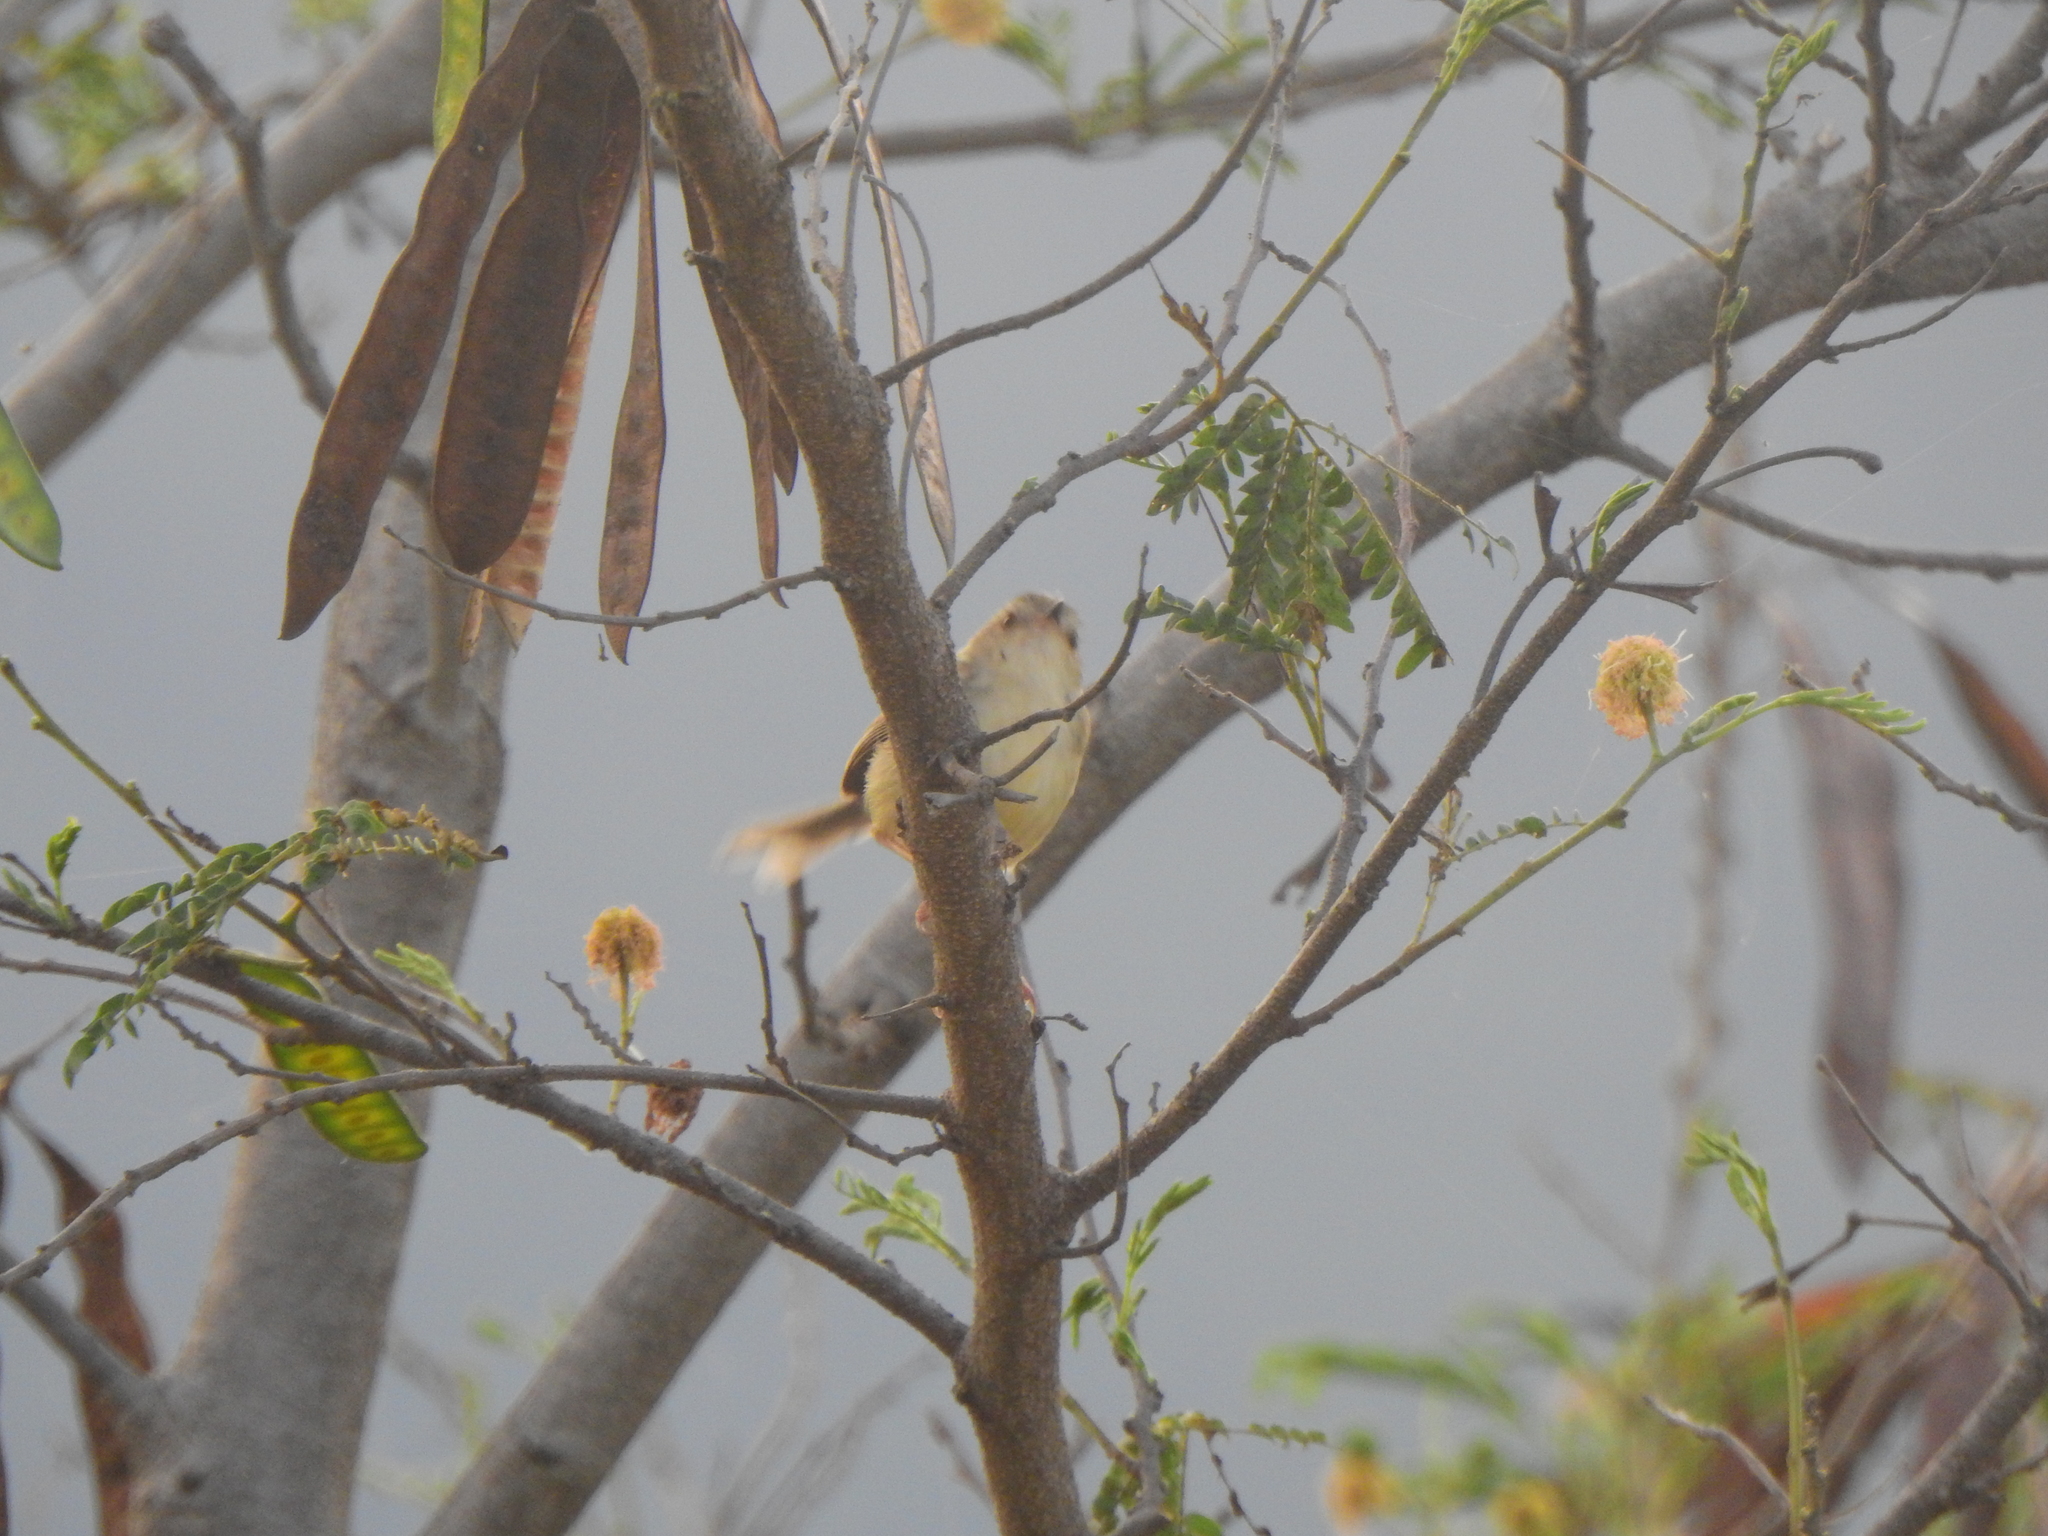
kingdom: Animalia
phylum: Chordata
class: Aves
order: Passeriformes
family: Cisticolidae
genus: Prinia
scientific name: Prinia inornata
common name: Plain prinia
